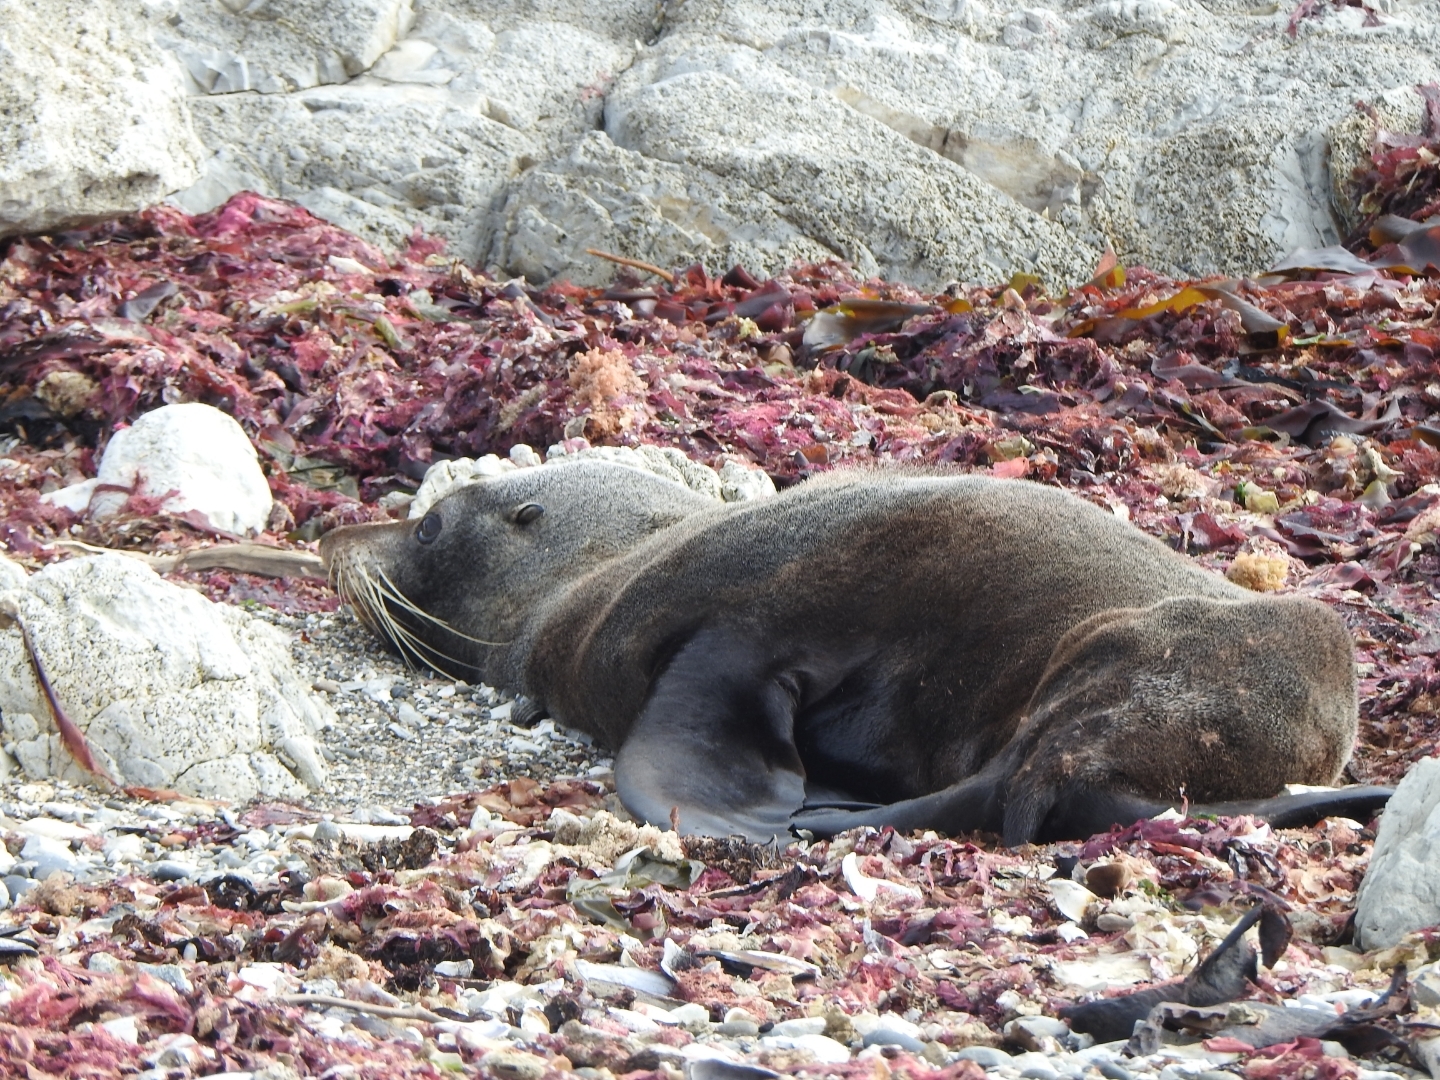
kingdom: Animalia
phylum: Chordata
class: Mammalia
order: Carnivora
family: Otariidae
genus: Arctocephalus
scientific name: Arctocephalus forsteri
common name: New zealand fur seal
